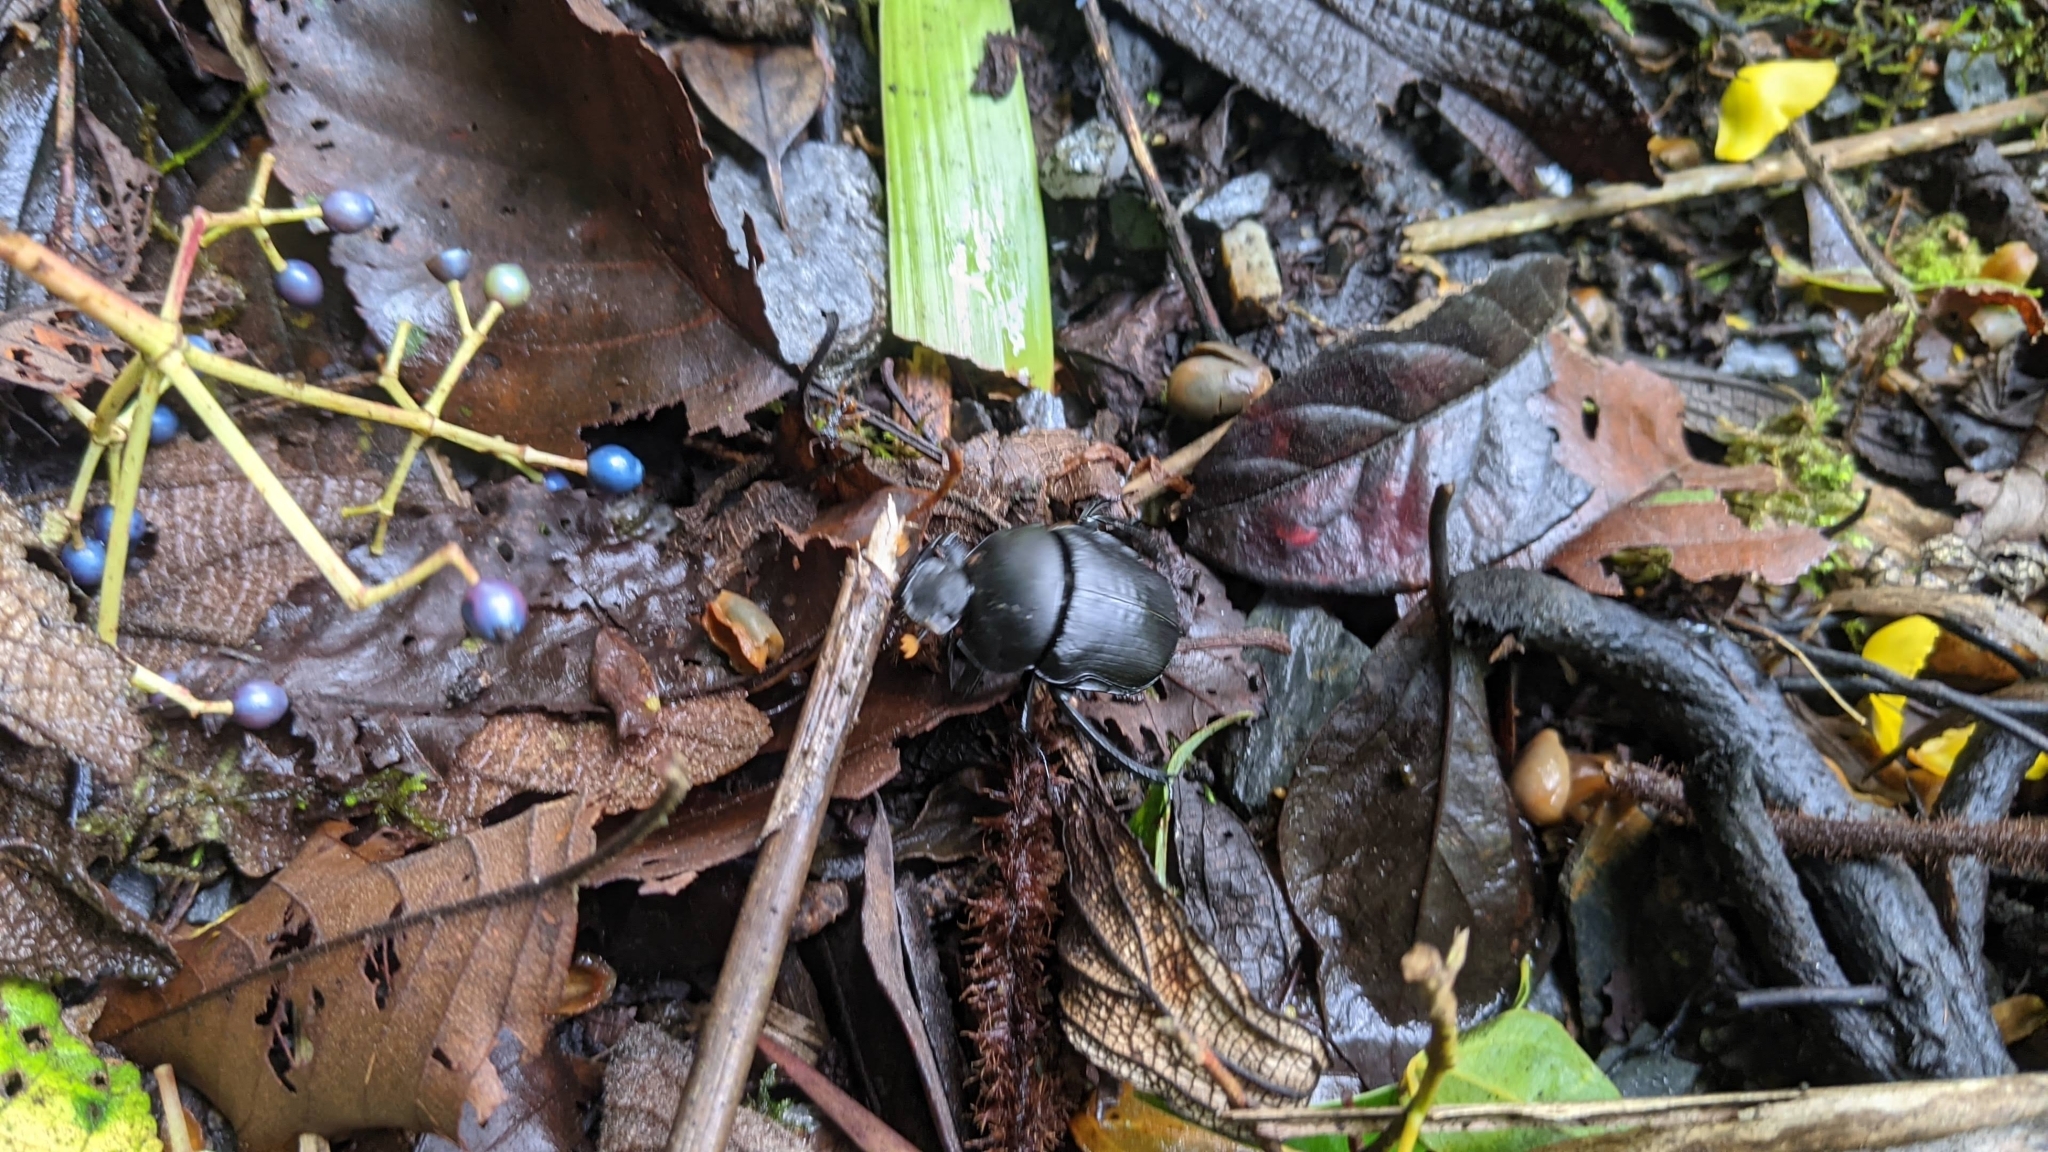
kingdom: Animalia
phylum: Arthropoda
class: Insecta
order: Coleoptera
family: Scarabaeidae
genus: Paragymnopleurus
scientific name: Paragymnopleurus ambiguus
